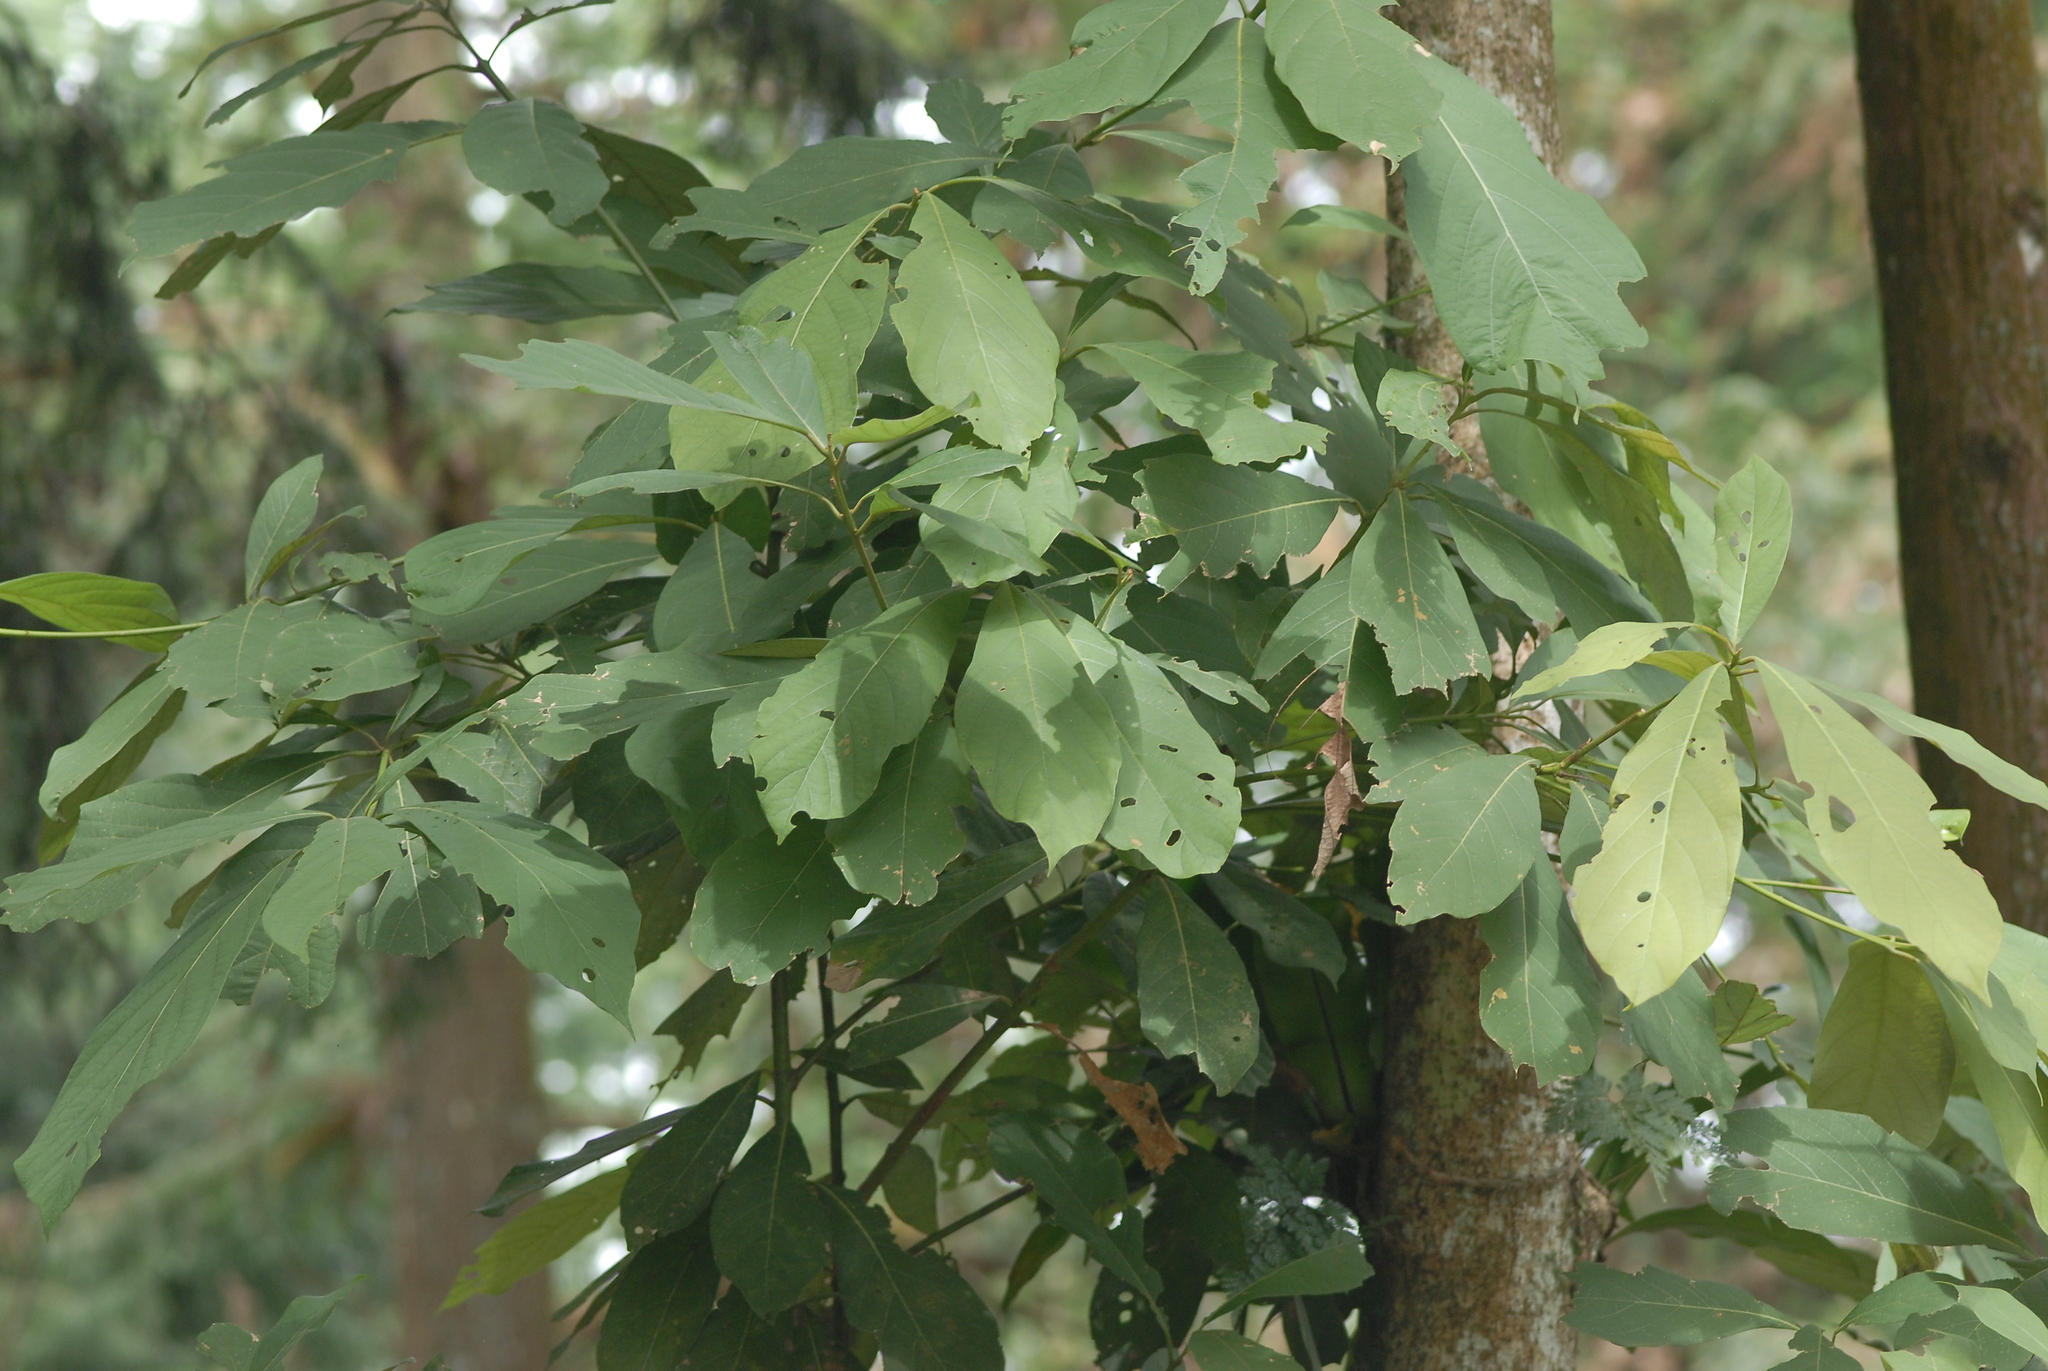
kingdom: Plantae
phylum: Tracheophyta
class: Magnoliopsida
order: Laurales
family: Lauraceae
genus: Phoebe
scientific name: Phoebe formosana
